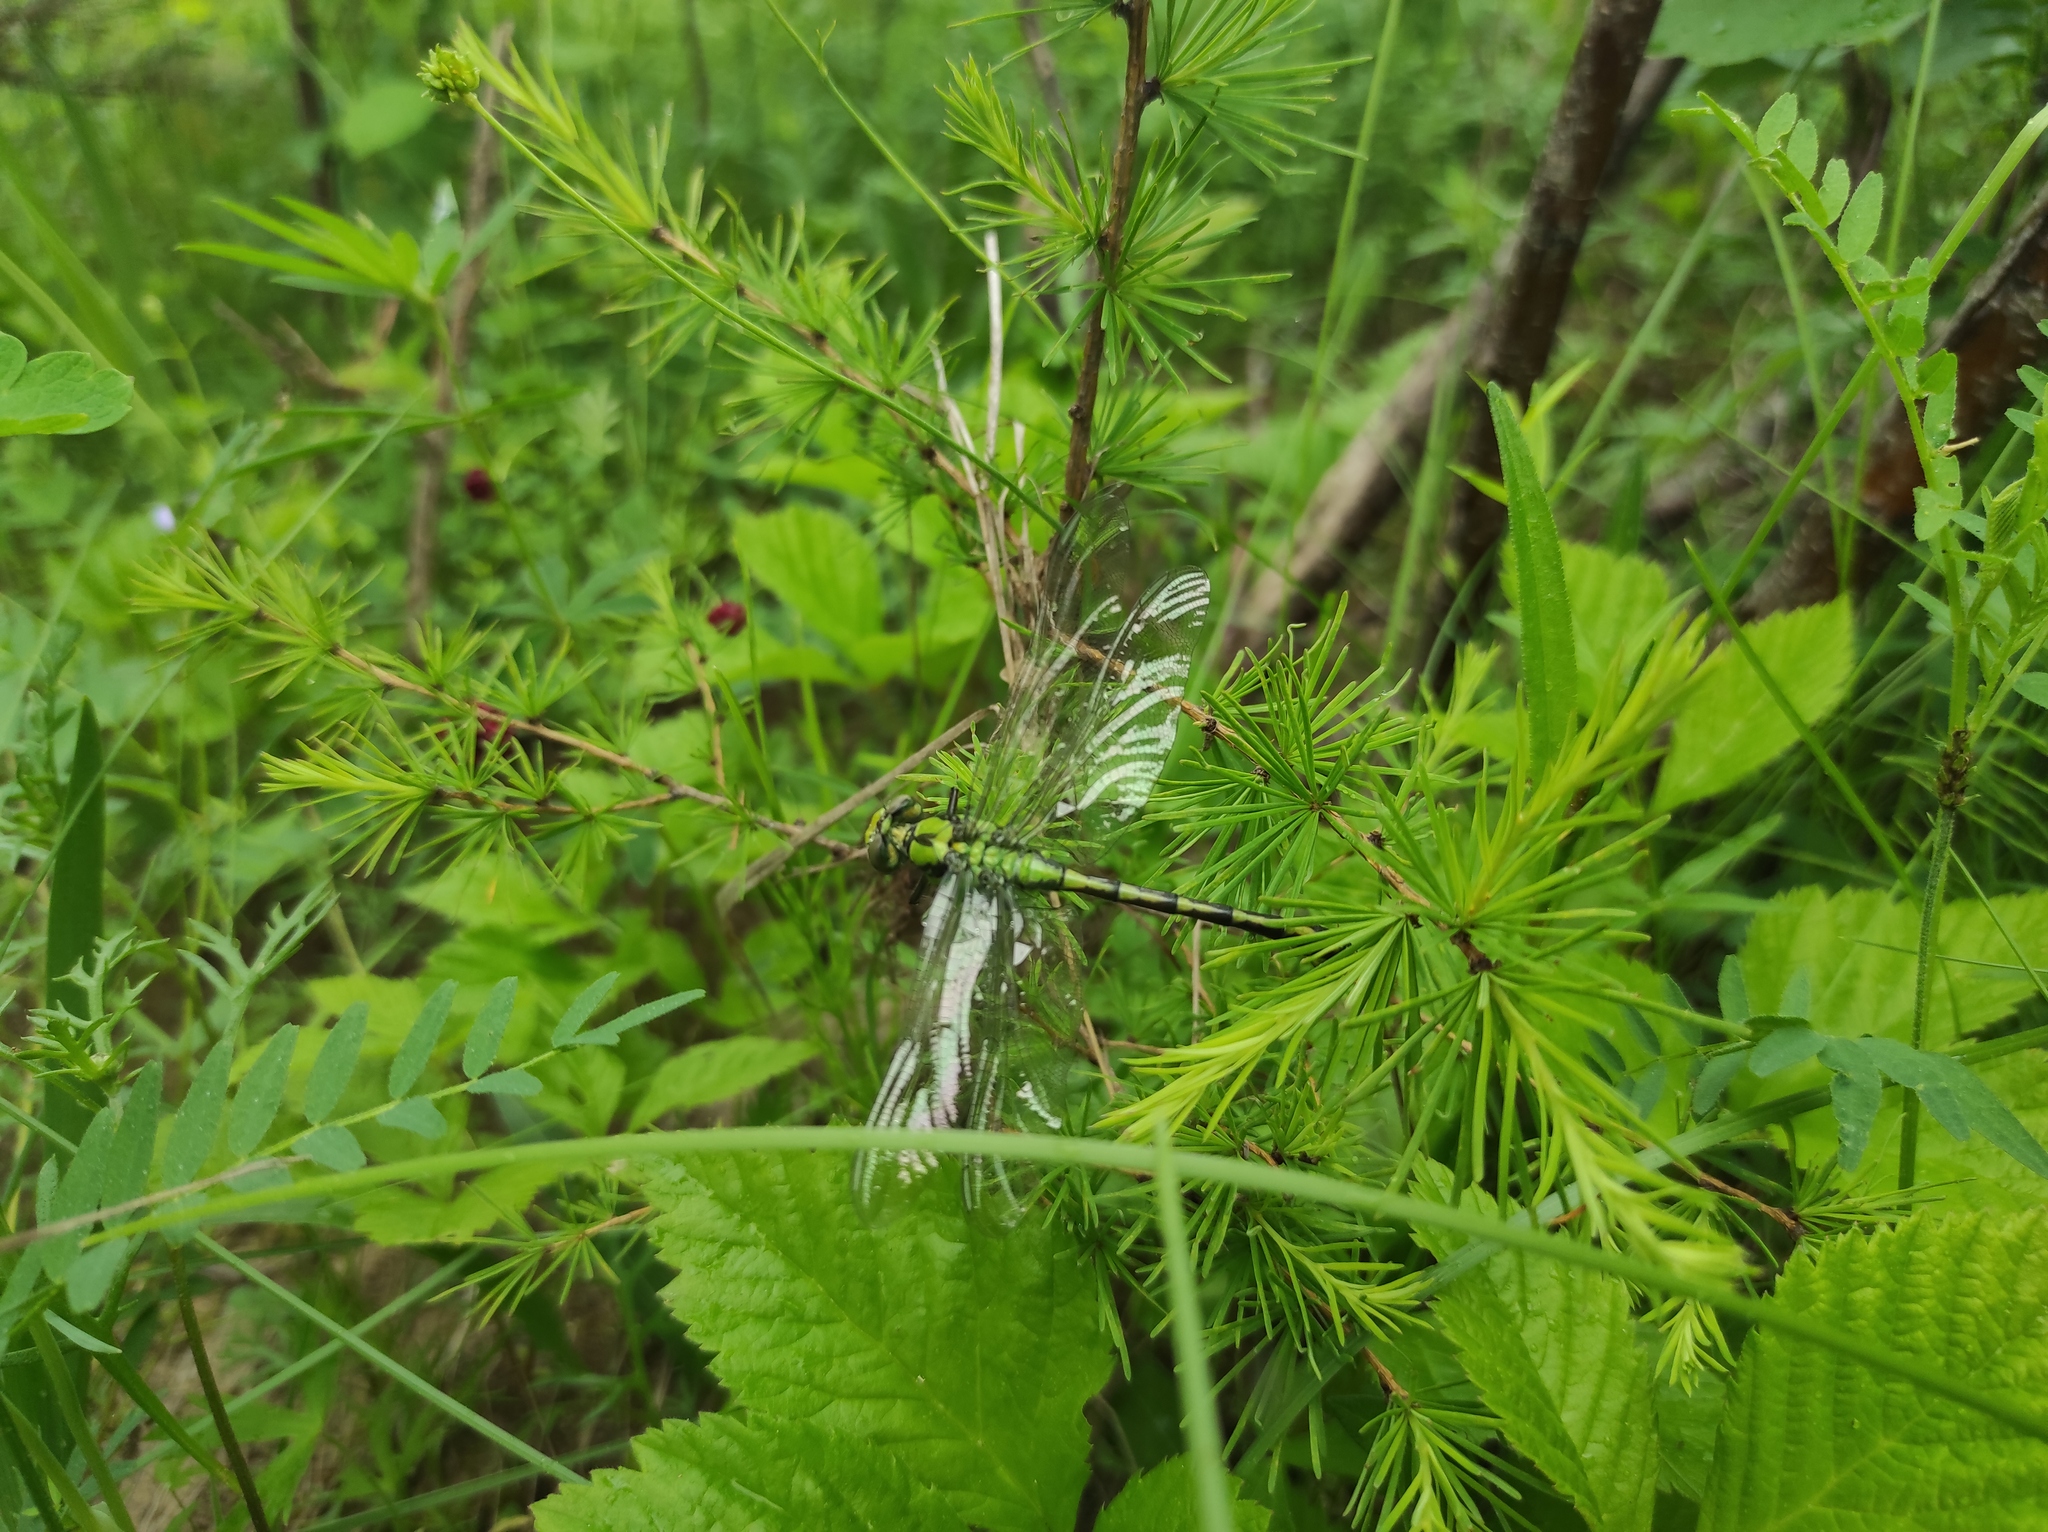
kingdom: Plantae
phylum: Tracheophyta
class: Magnoliopsida
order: Rosales
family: Rosaceae
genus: Rubus
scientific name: Rubus saxatilis
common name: Stone bramble
